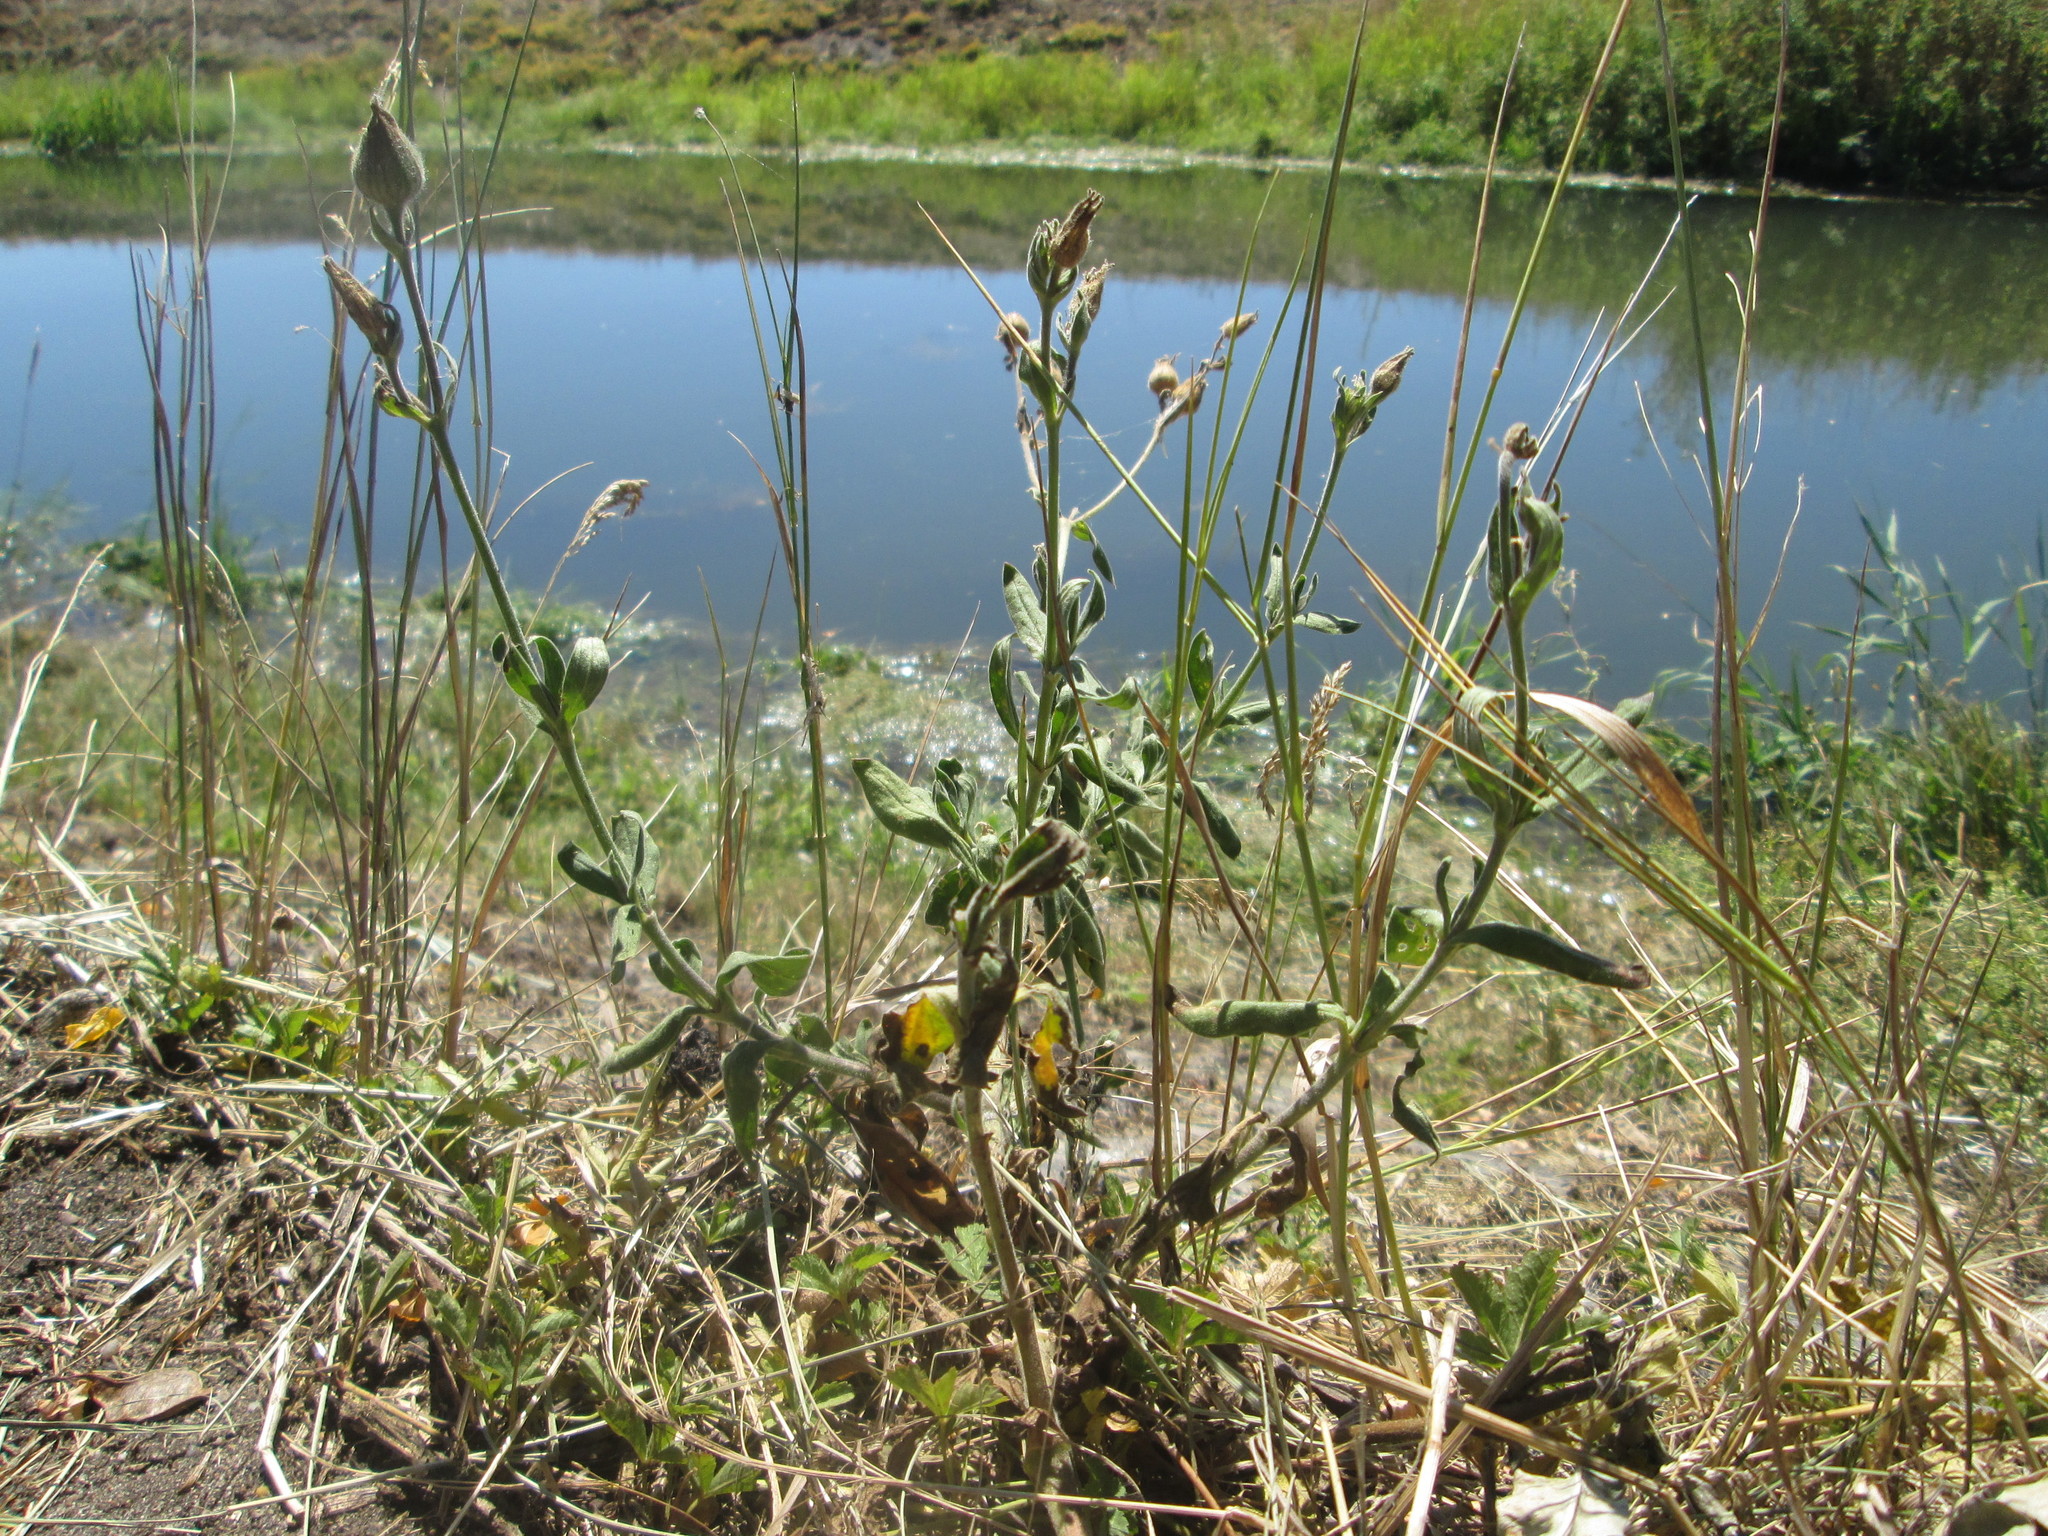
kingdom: Plantae
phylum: Tracheophyta
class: Magnoliopsida
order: Caryophyllales
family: Caryophyllaceae
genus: Silene
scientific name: Silene latifolia
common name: White campion
